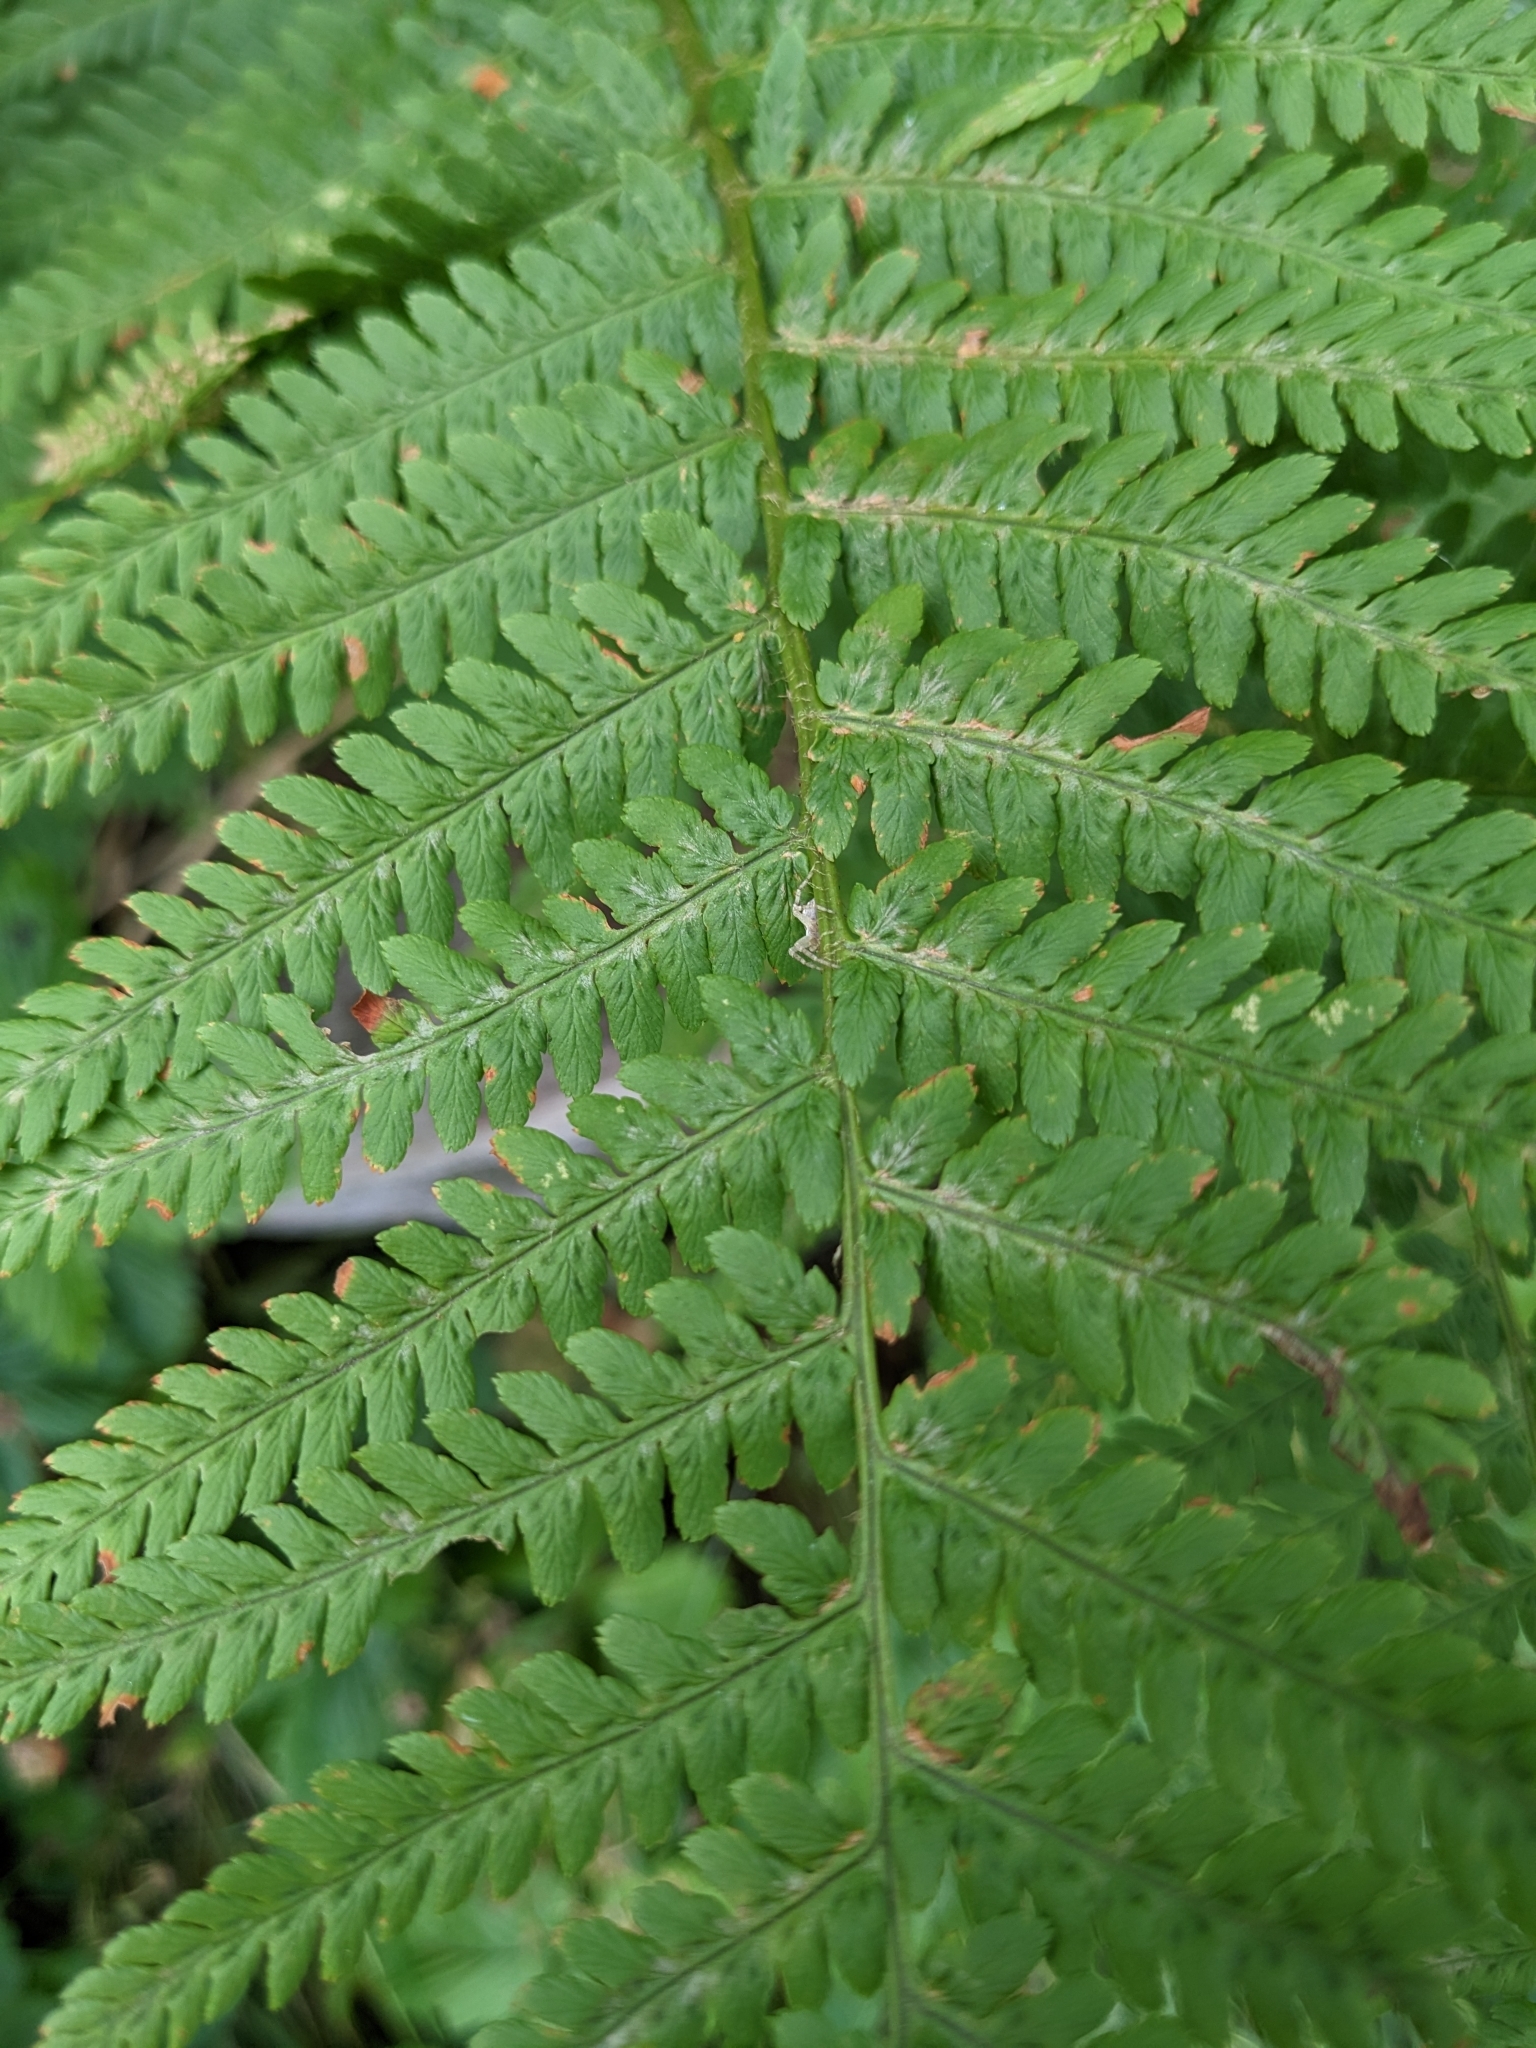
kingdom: Plantae
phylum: Tracheophyta
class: Polypodiopsida
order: Polypodiales
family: Dryopteridaceae
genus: Dryopteris
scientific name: Dryopteris filix-mas
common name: Male fern
